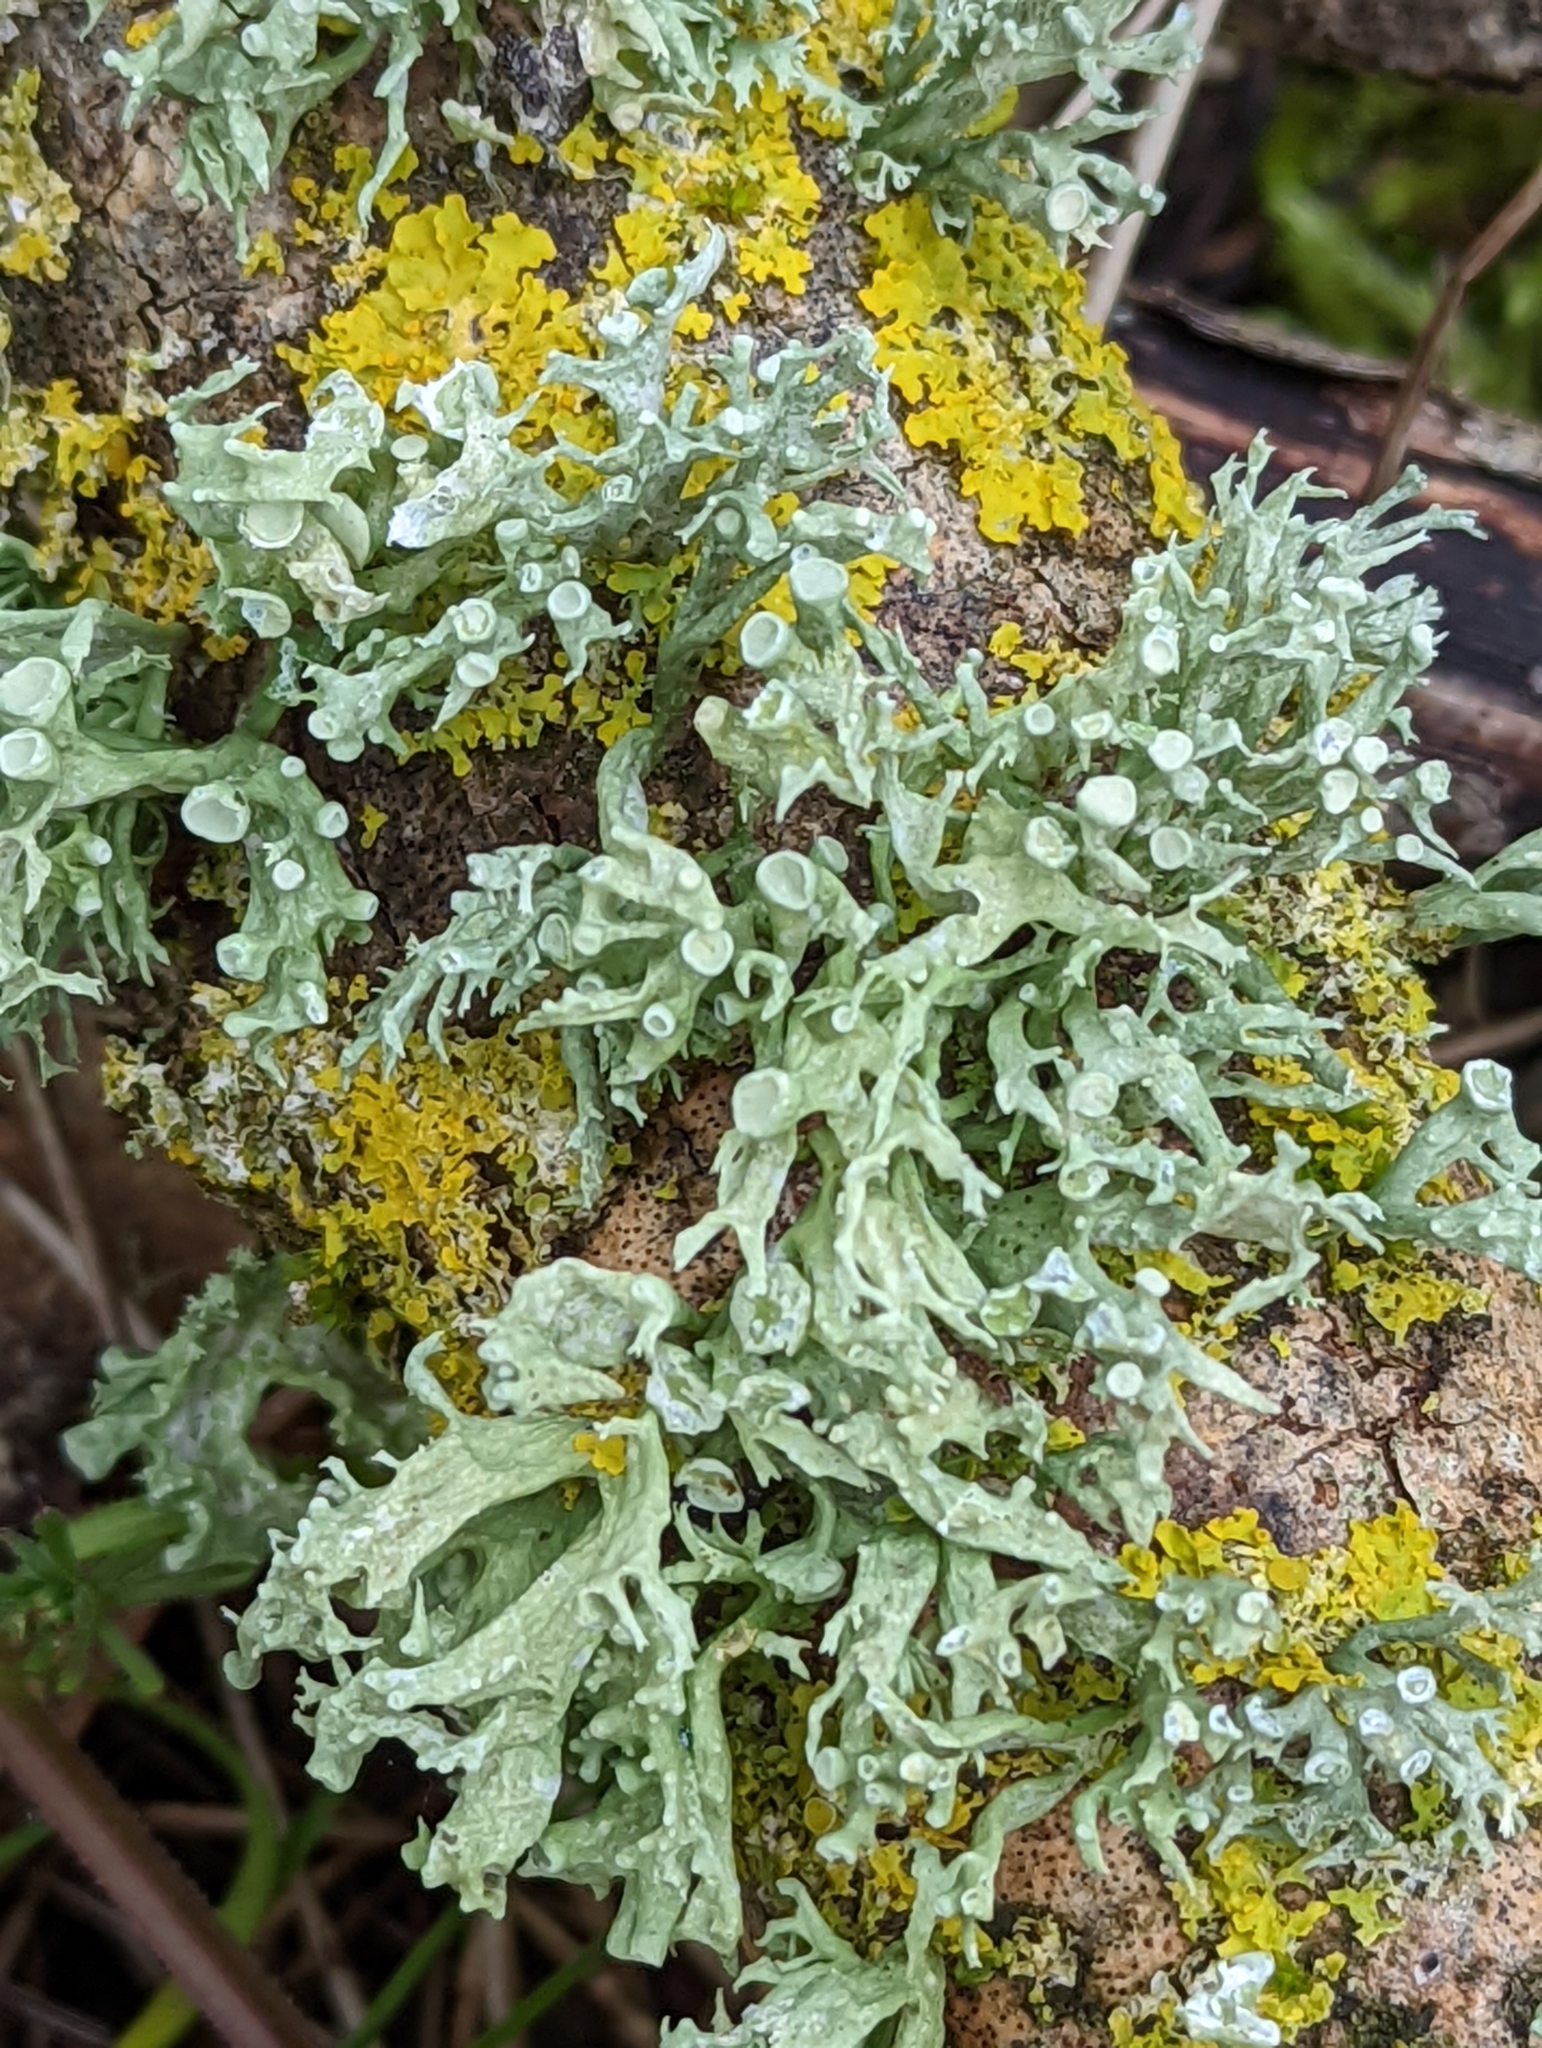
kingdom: Fungi
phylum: Ascomycota
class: Lecanoromycetes
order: Lecanorales
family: Ramalinaceae
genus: Ramalina
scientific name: Ramalina fastigiata
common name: Dotted ribbon lichen
